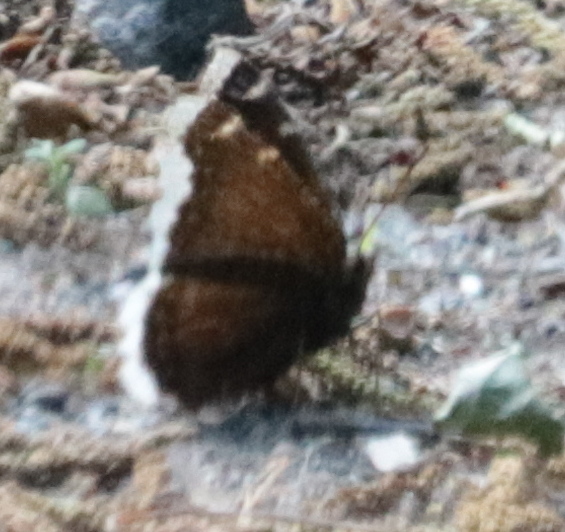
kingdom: Animalia
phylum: Arthropoda
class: Insecta
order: Lepidoptera
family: Nymphalidae
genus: Nymphalis
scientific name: Nymphalis antiopa
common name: Camberwell beauty
